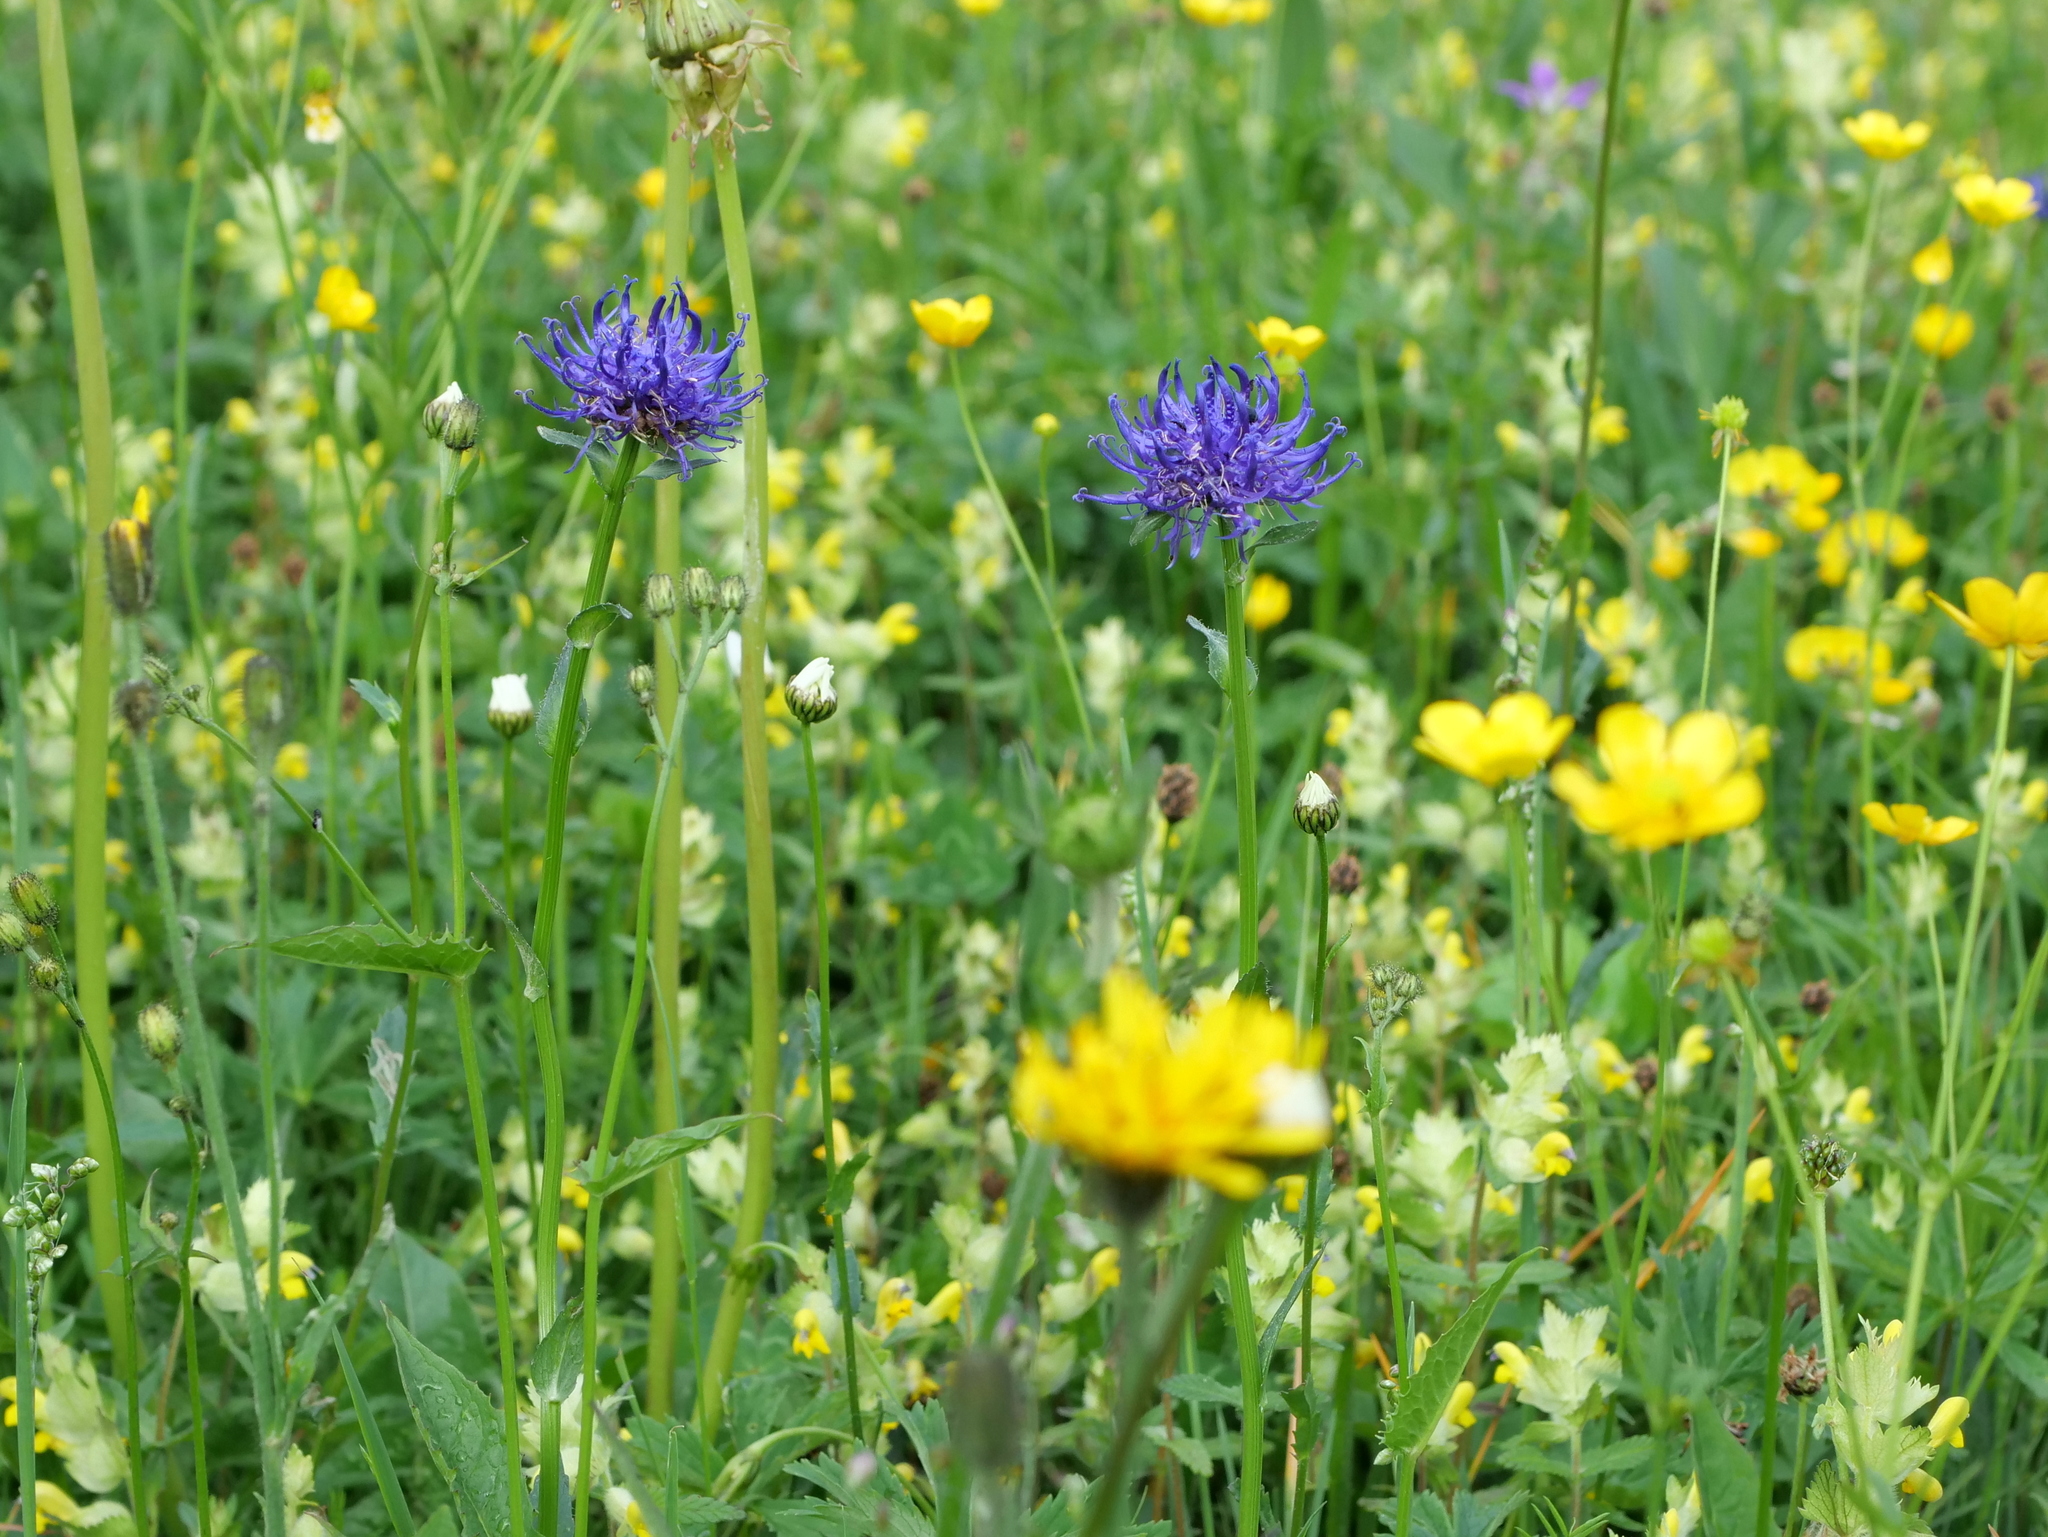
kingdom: Plantae
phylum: Tracheophyta
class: Magnoliopsida
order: Asterales
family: Campanulaceae
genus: Phyteuma
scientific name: Phyteuma orbiculare
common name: Round-headed rampion
